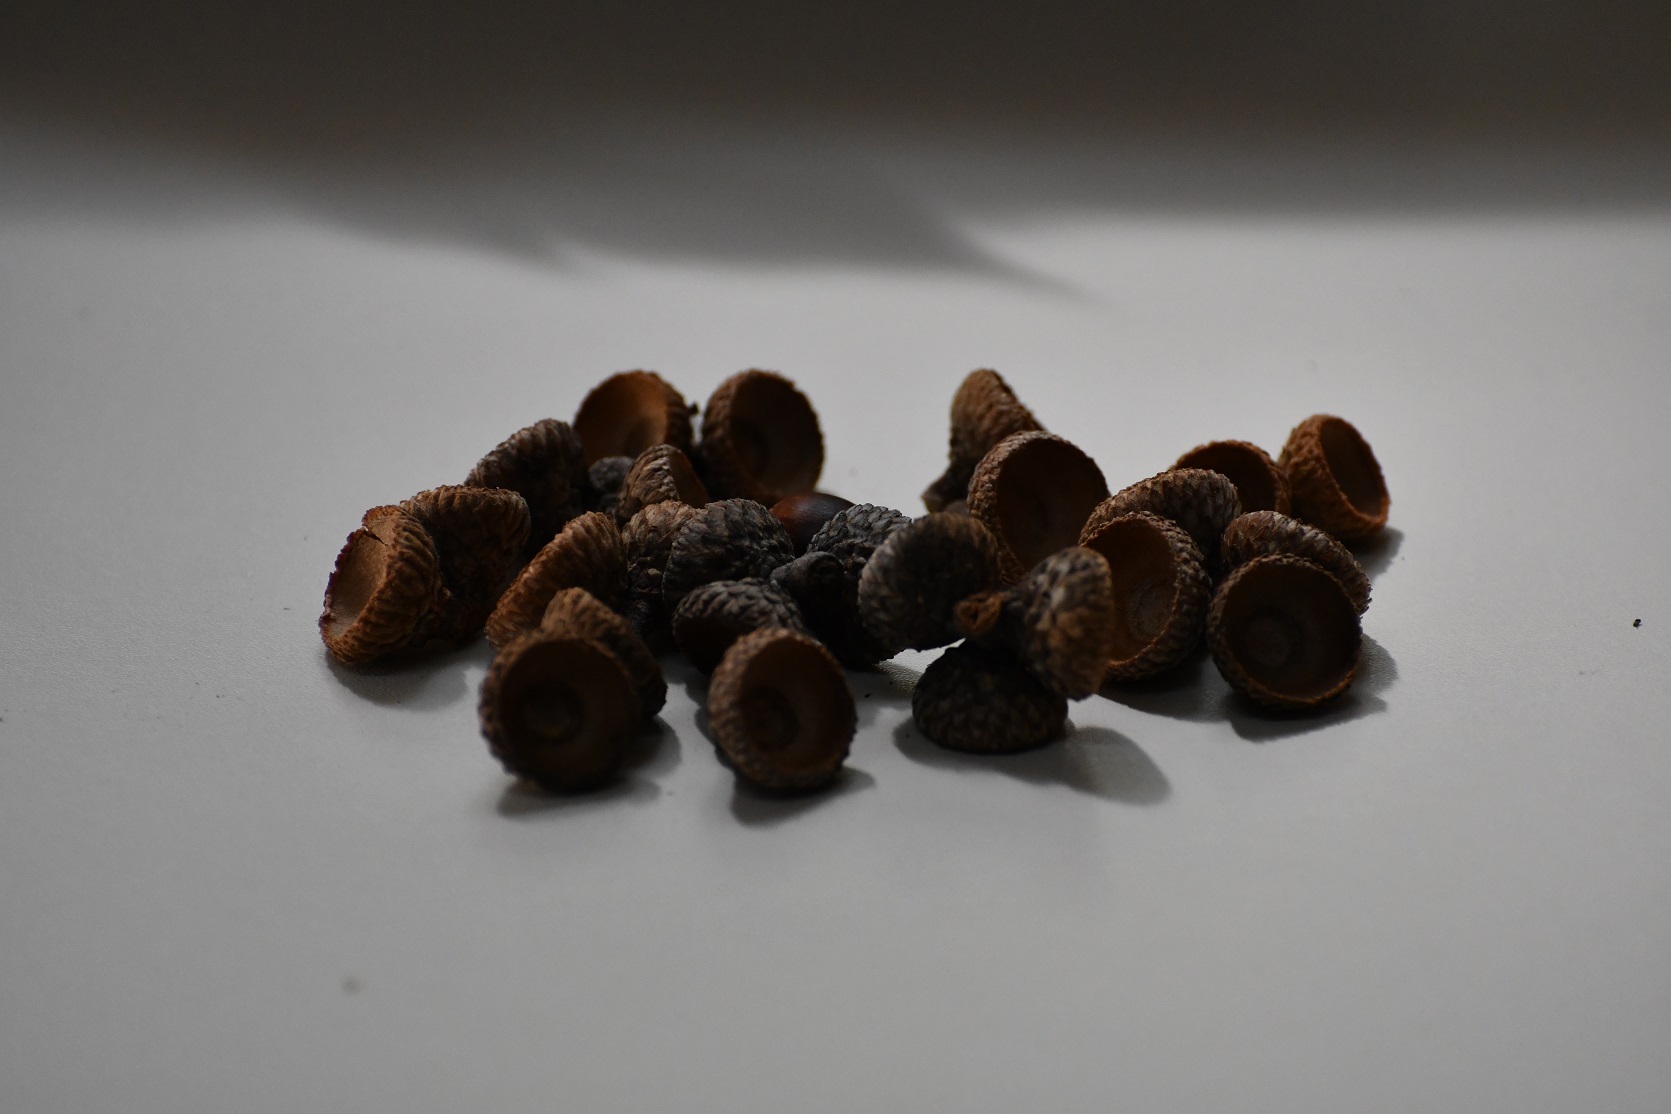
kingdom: Plantae
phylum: Tracheophyta
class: Magnoliopsida
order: Fagales
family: Fagaceae
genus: Quercus
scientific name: Quercus dysophylla
